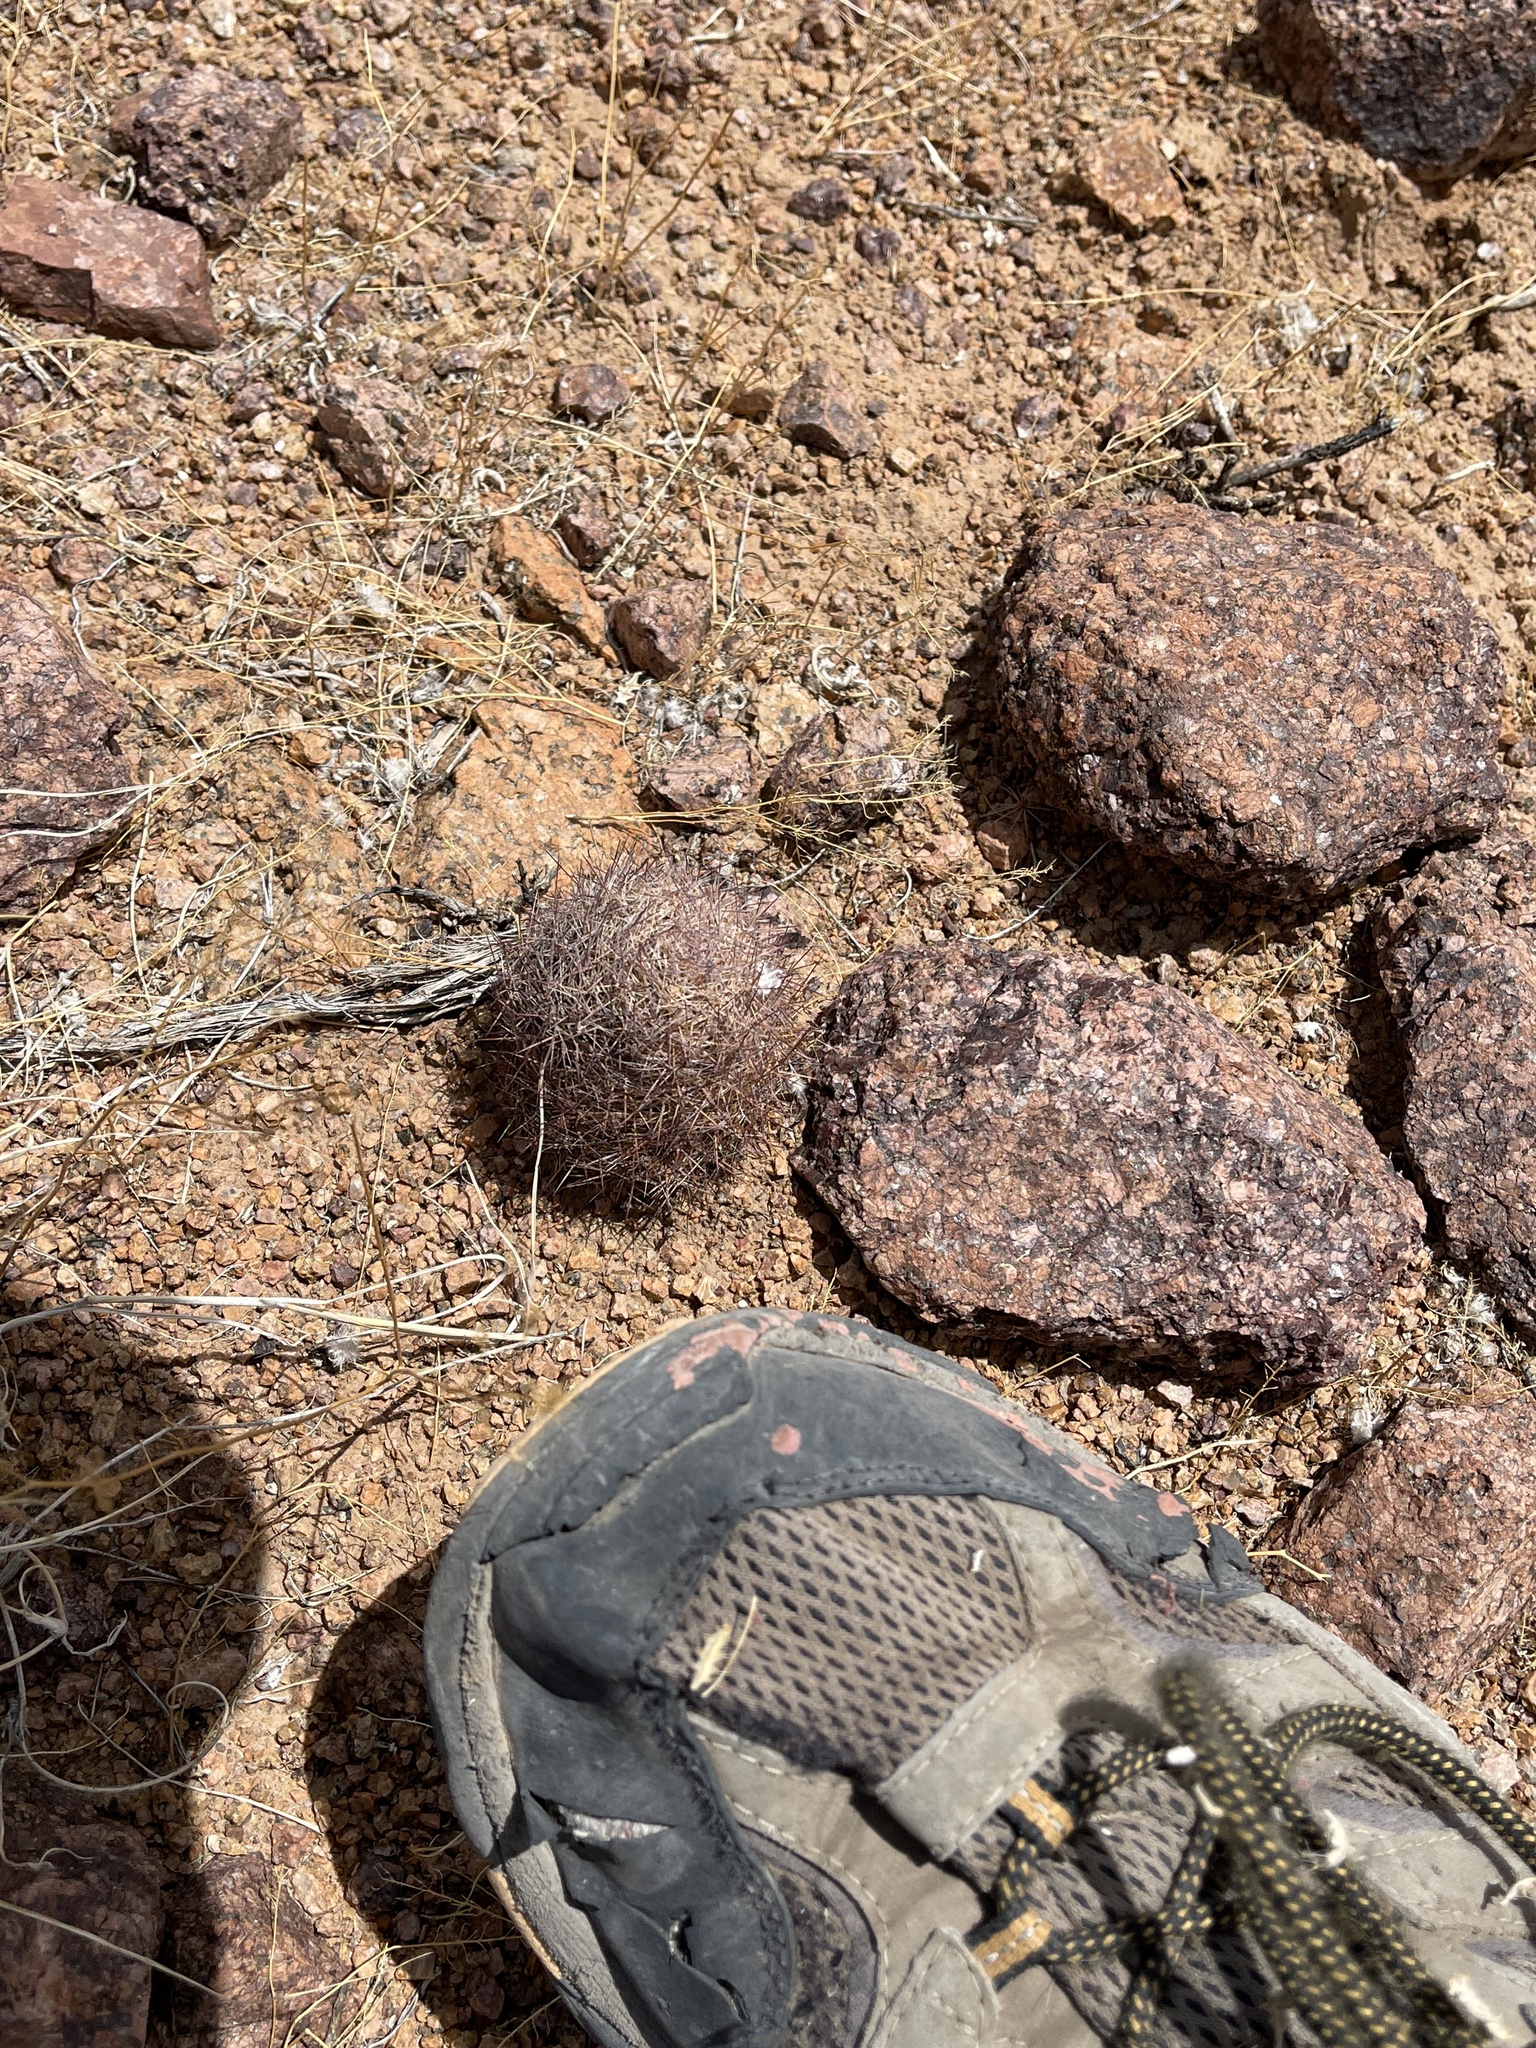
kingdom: Plantae
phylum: Tracheophyta
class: Magnoliopsida
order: Caryophyllales
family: Cactaceae
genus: Sclerocactus
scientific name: Sclerocactus intertextus
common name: White fish-hook cactus
